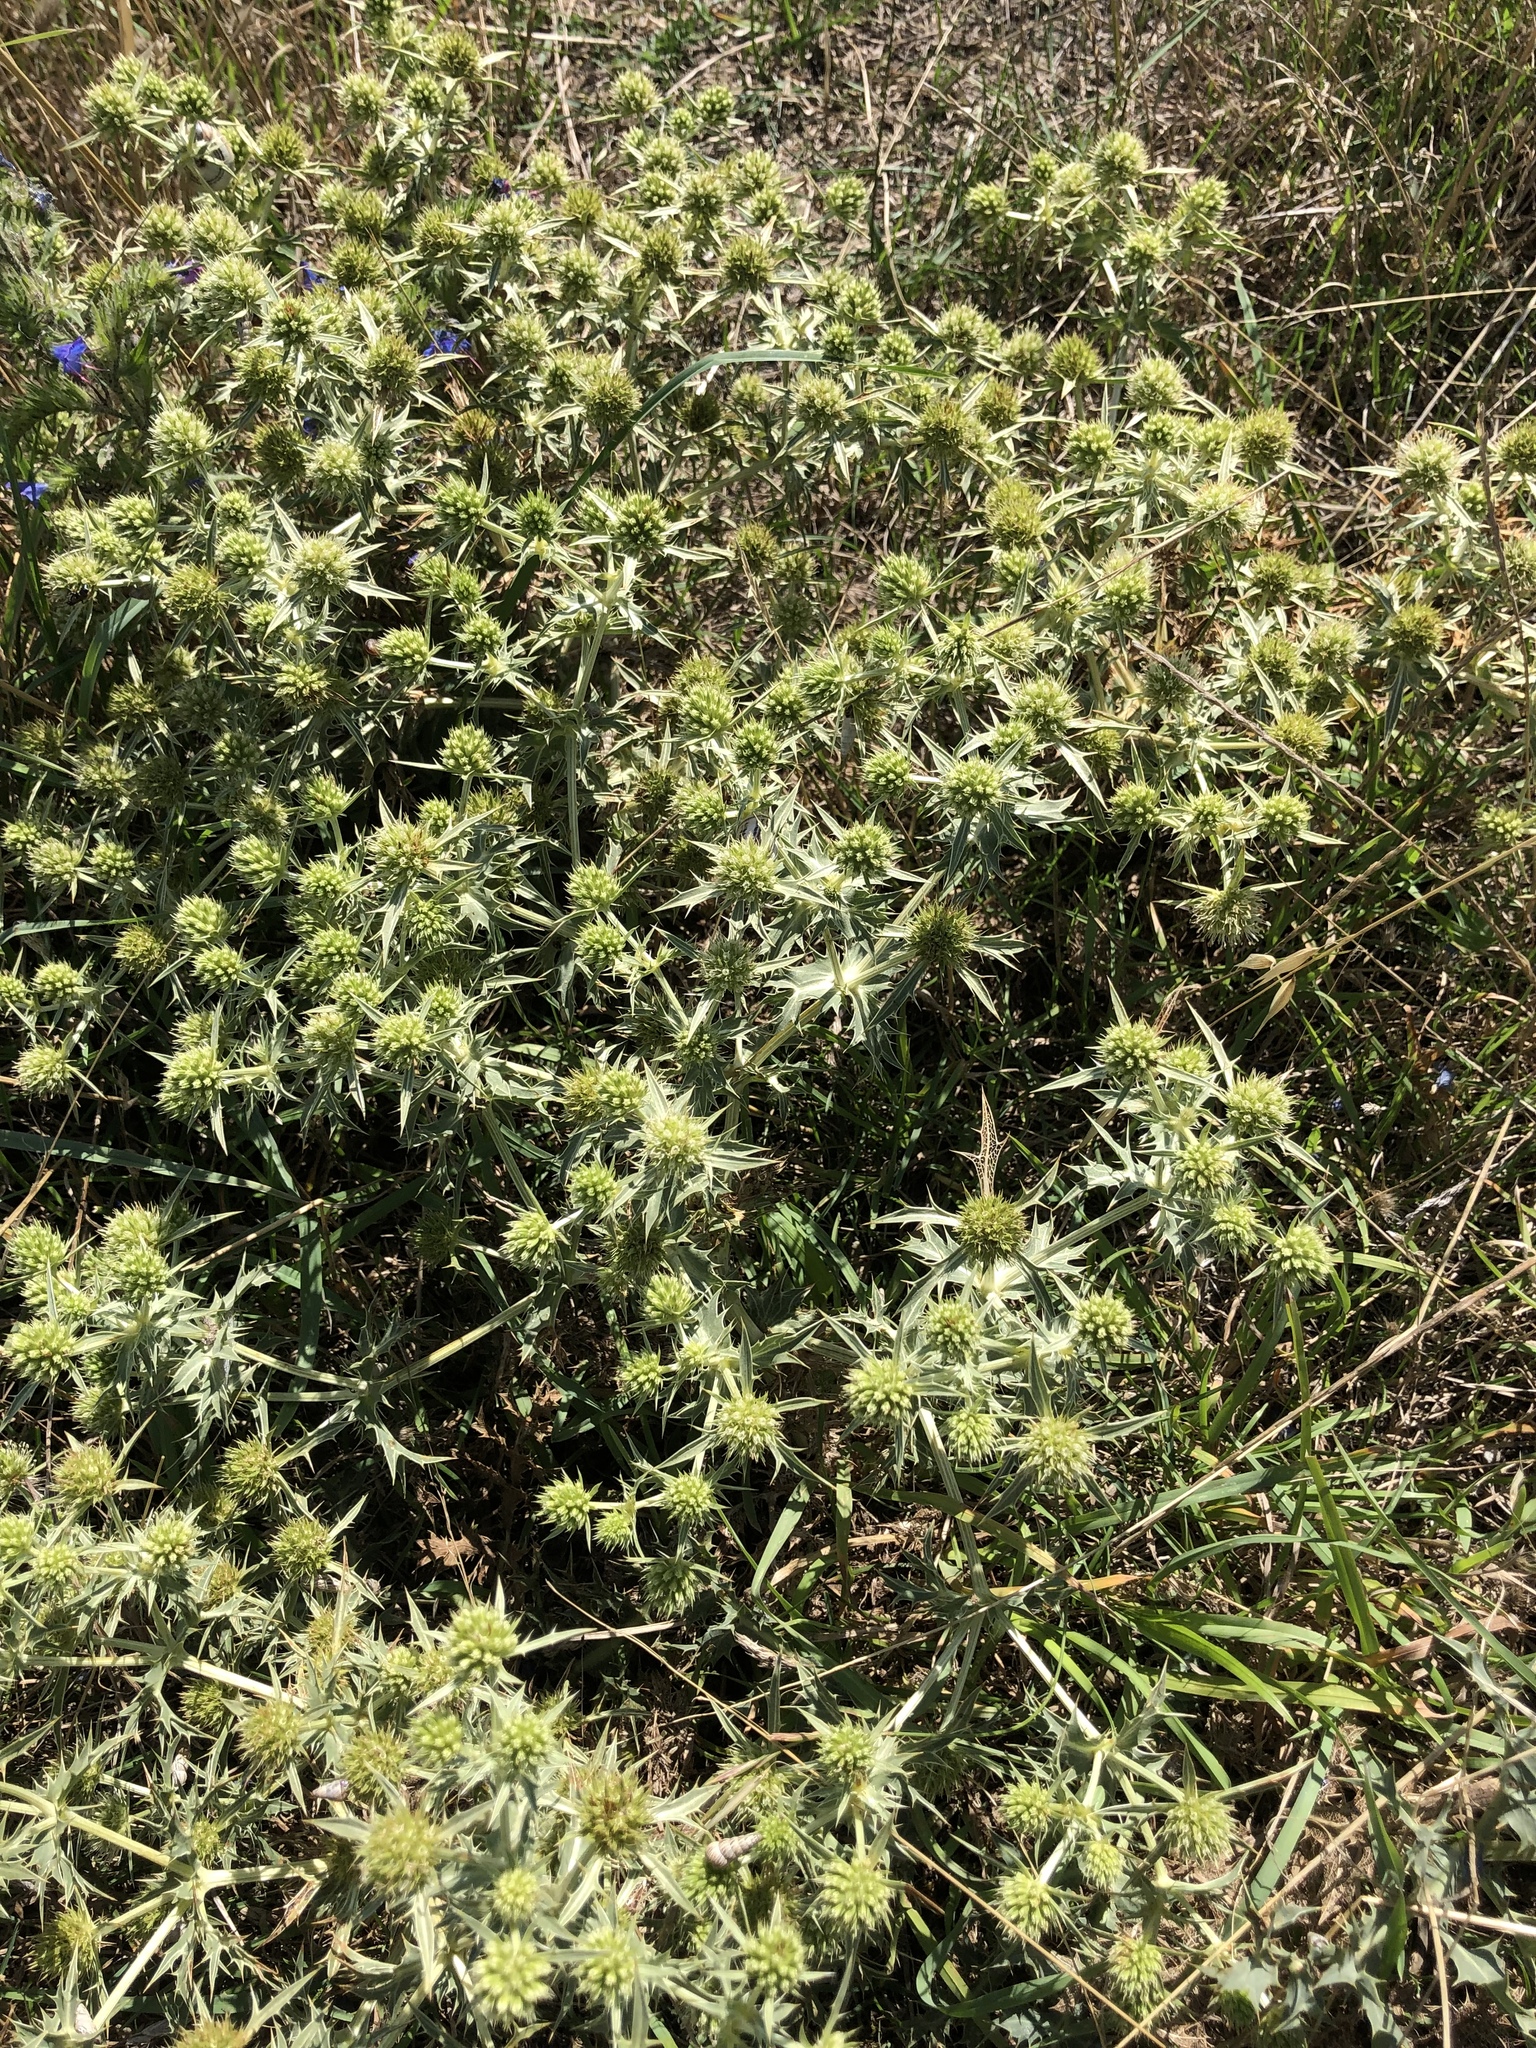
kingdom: Plantae
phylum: Tracheophyta
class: Magnoliopsida
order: Apiales
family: Apiaceae
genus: Eryngium
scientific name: Eryngium campestre
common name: Field eryngo
